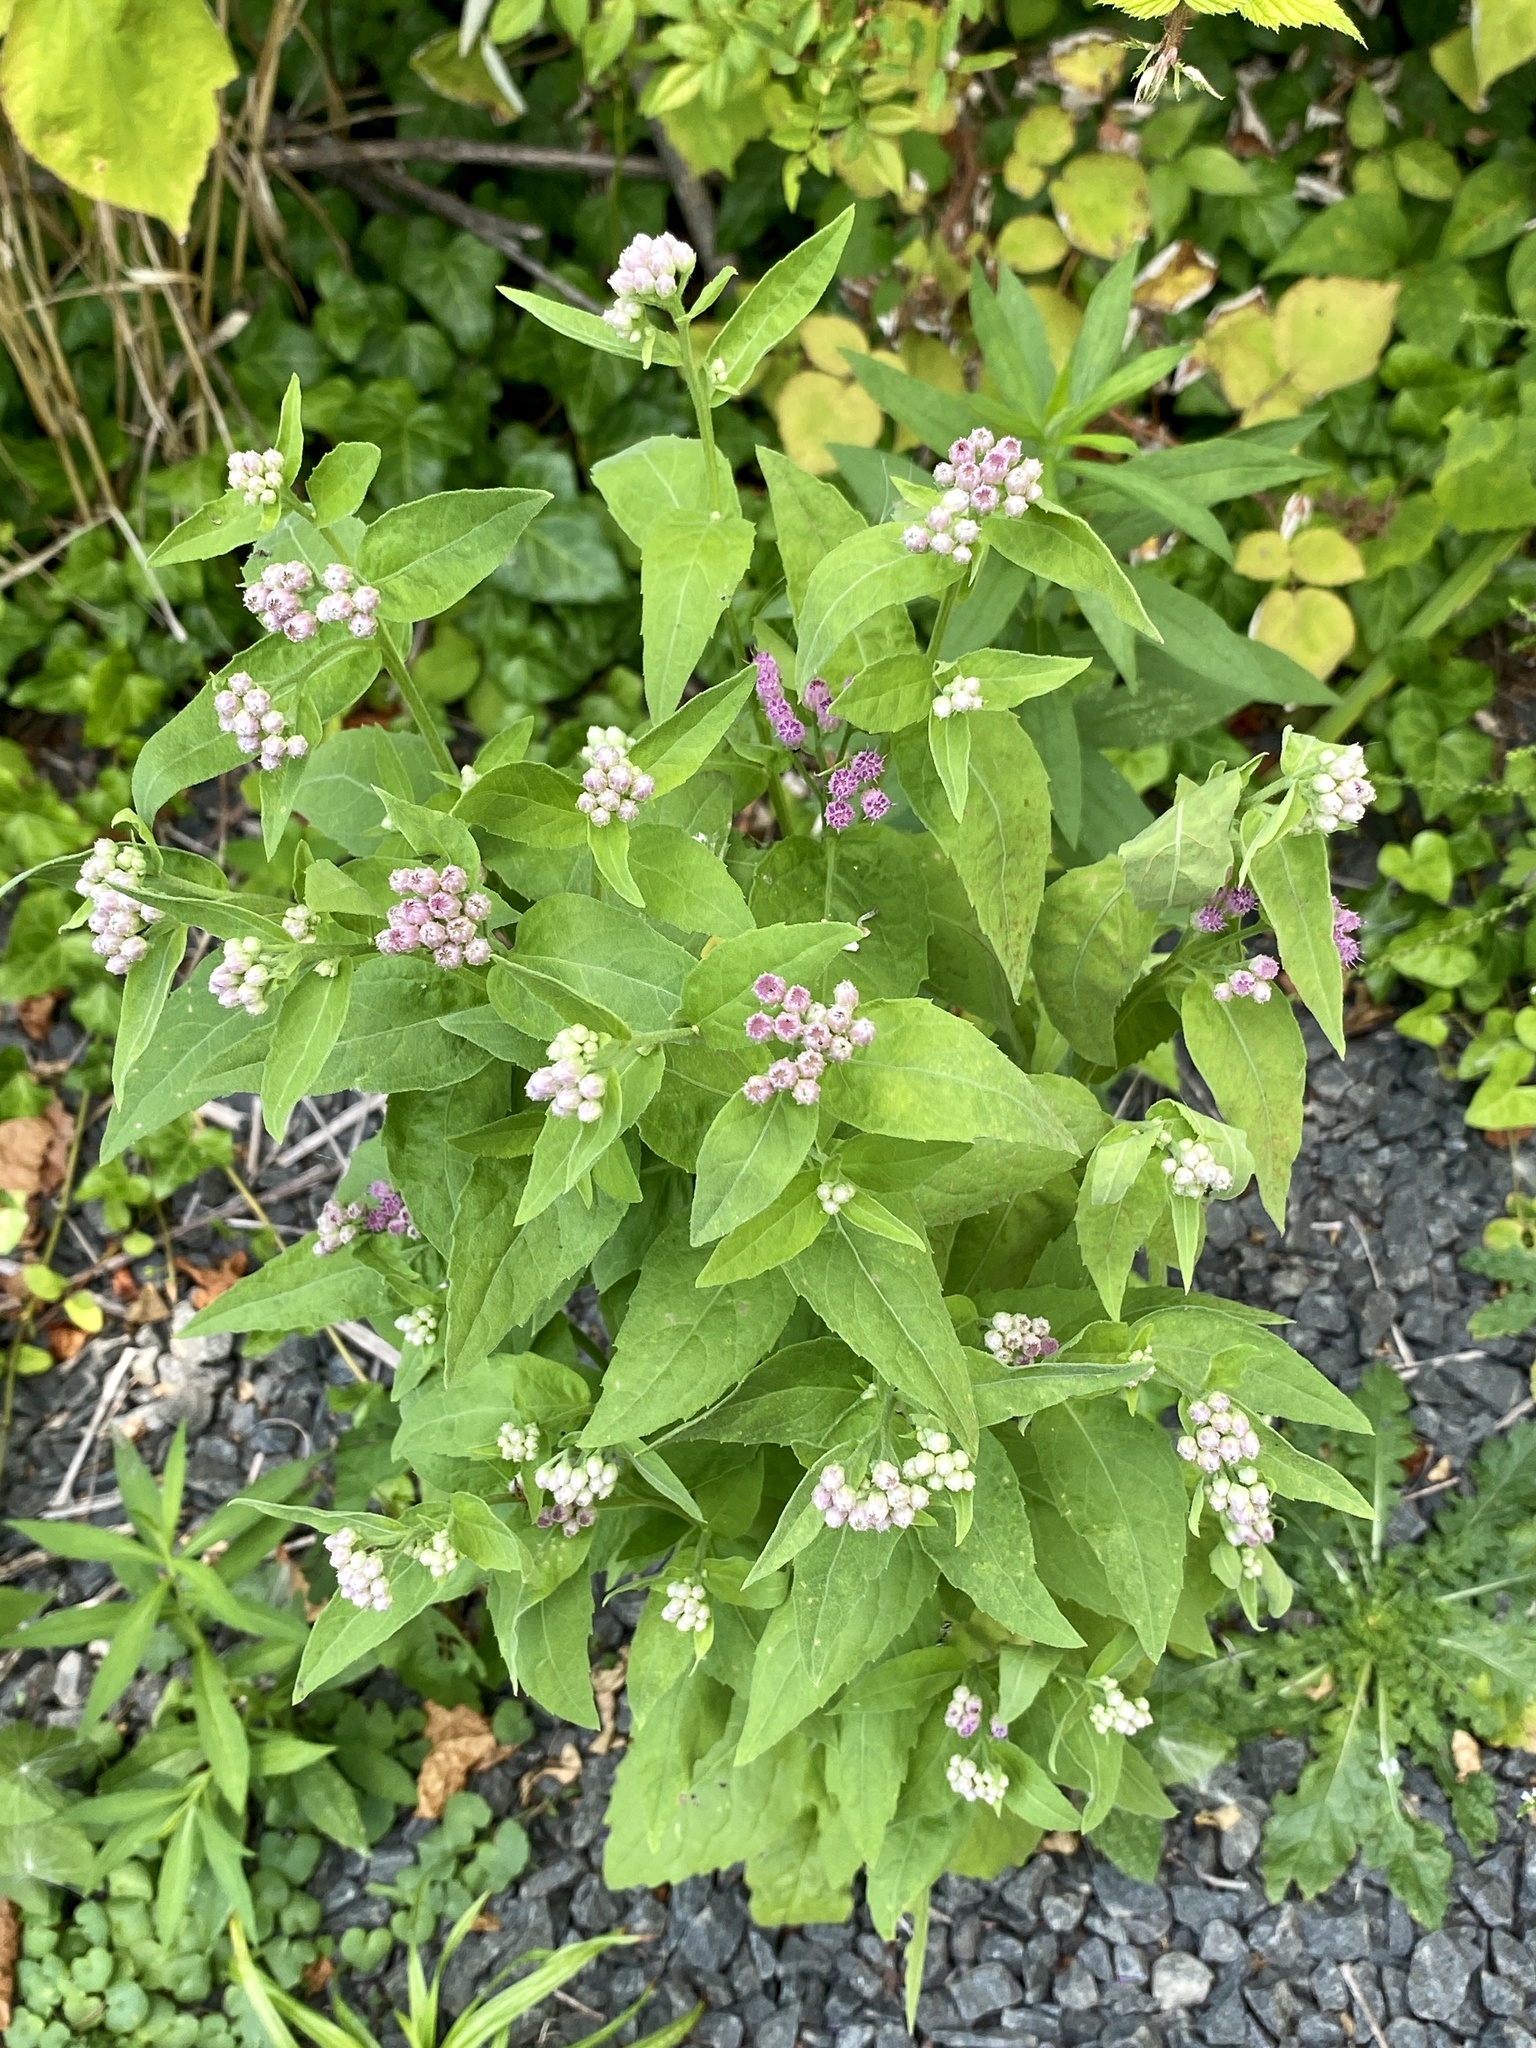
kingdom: Plantae
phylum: Tracheophyta
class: Magnoliopsida
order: Asterales
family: Asteraceae
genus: Pluchea
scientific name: Pluchea odorata
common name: Saltmarsh fleabane
